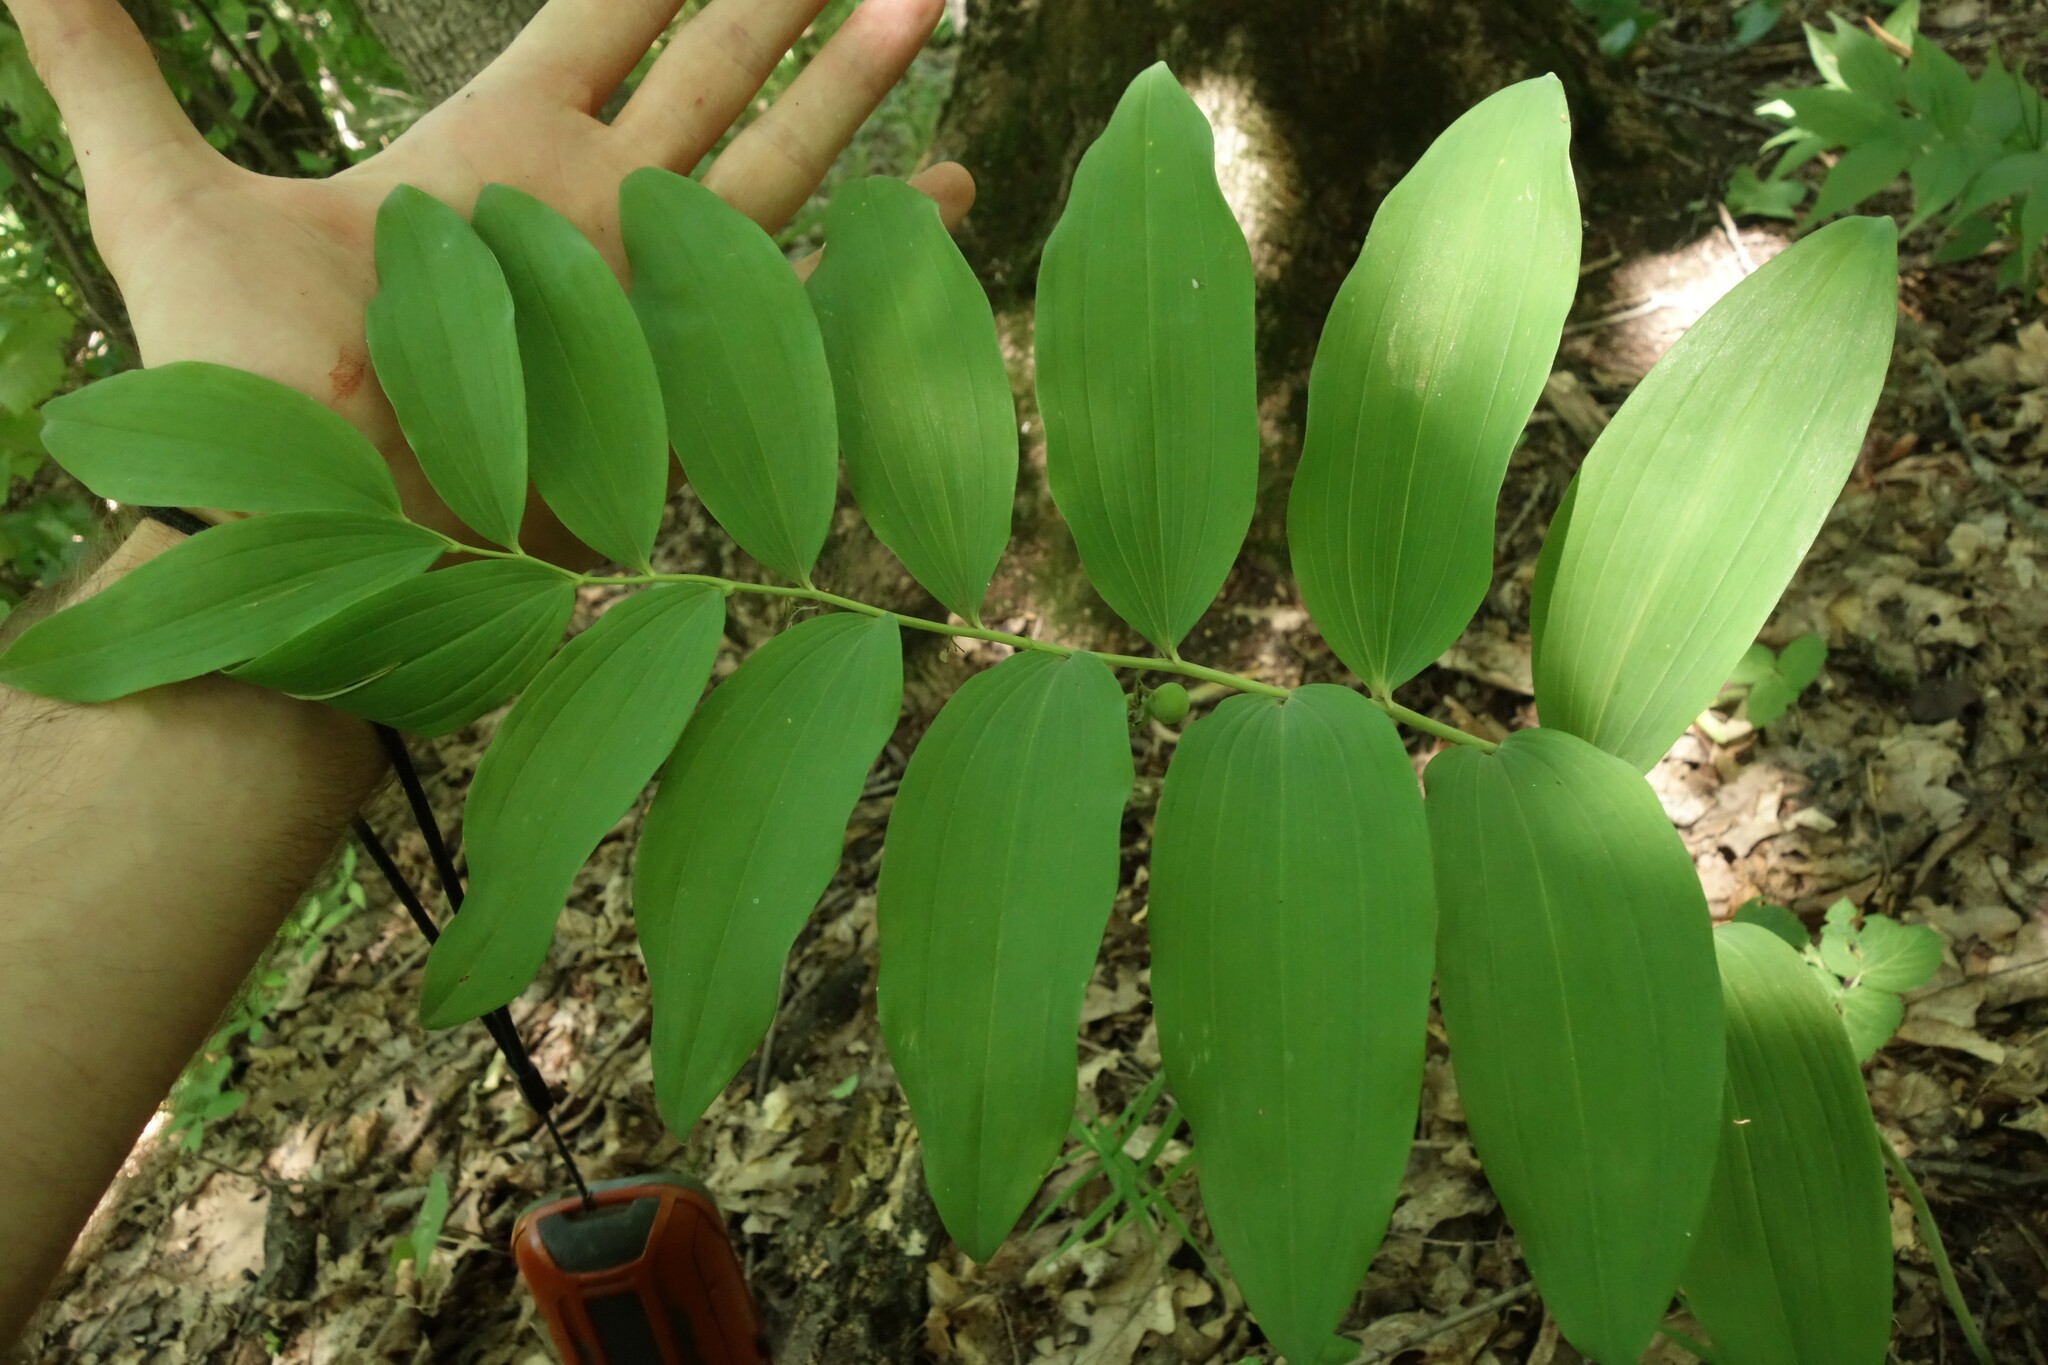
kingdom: Plantae
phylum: Tracheophyta
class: Liliopsida
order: Asparagales
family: Asparagaceae
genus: Polygonatum
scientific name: Polygonatum multiflorum
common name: Solomon's-seal
